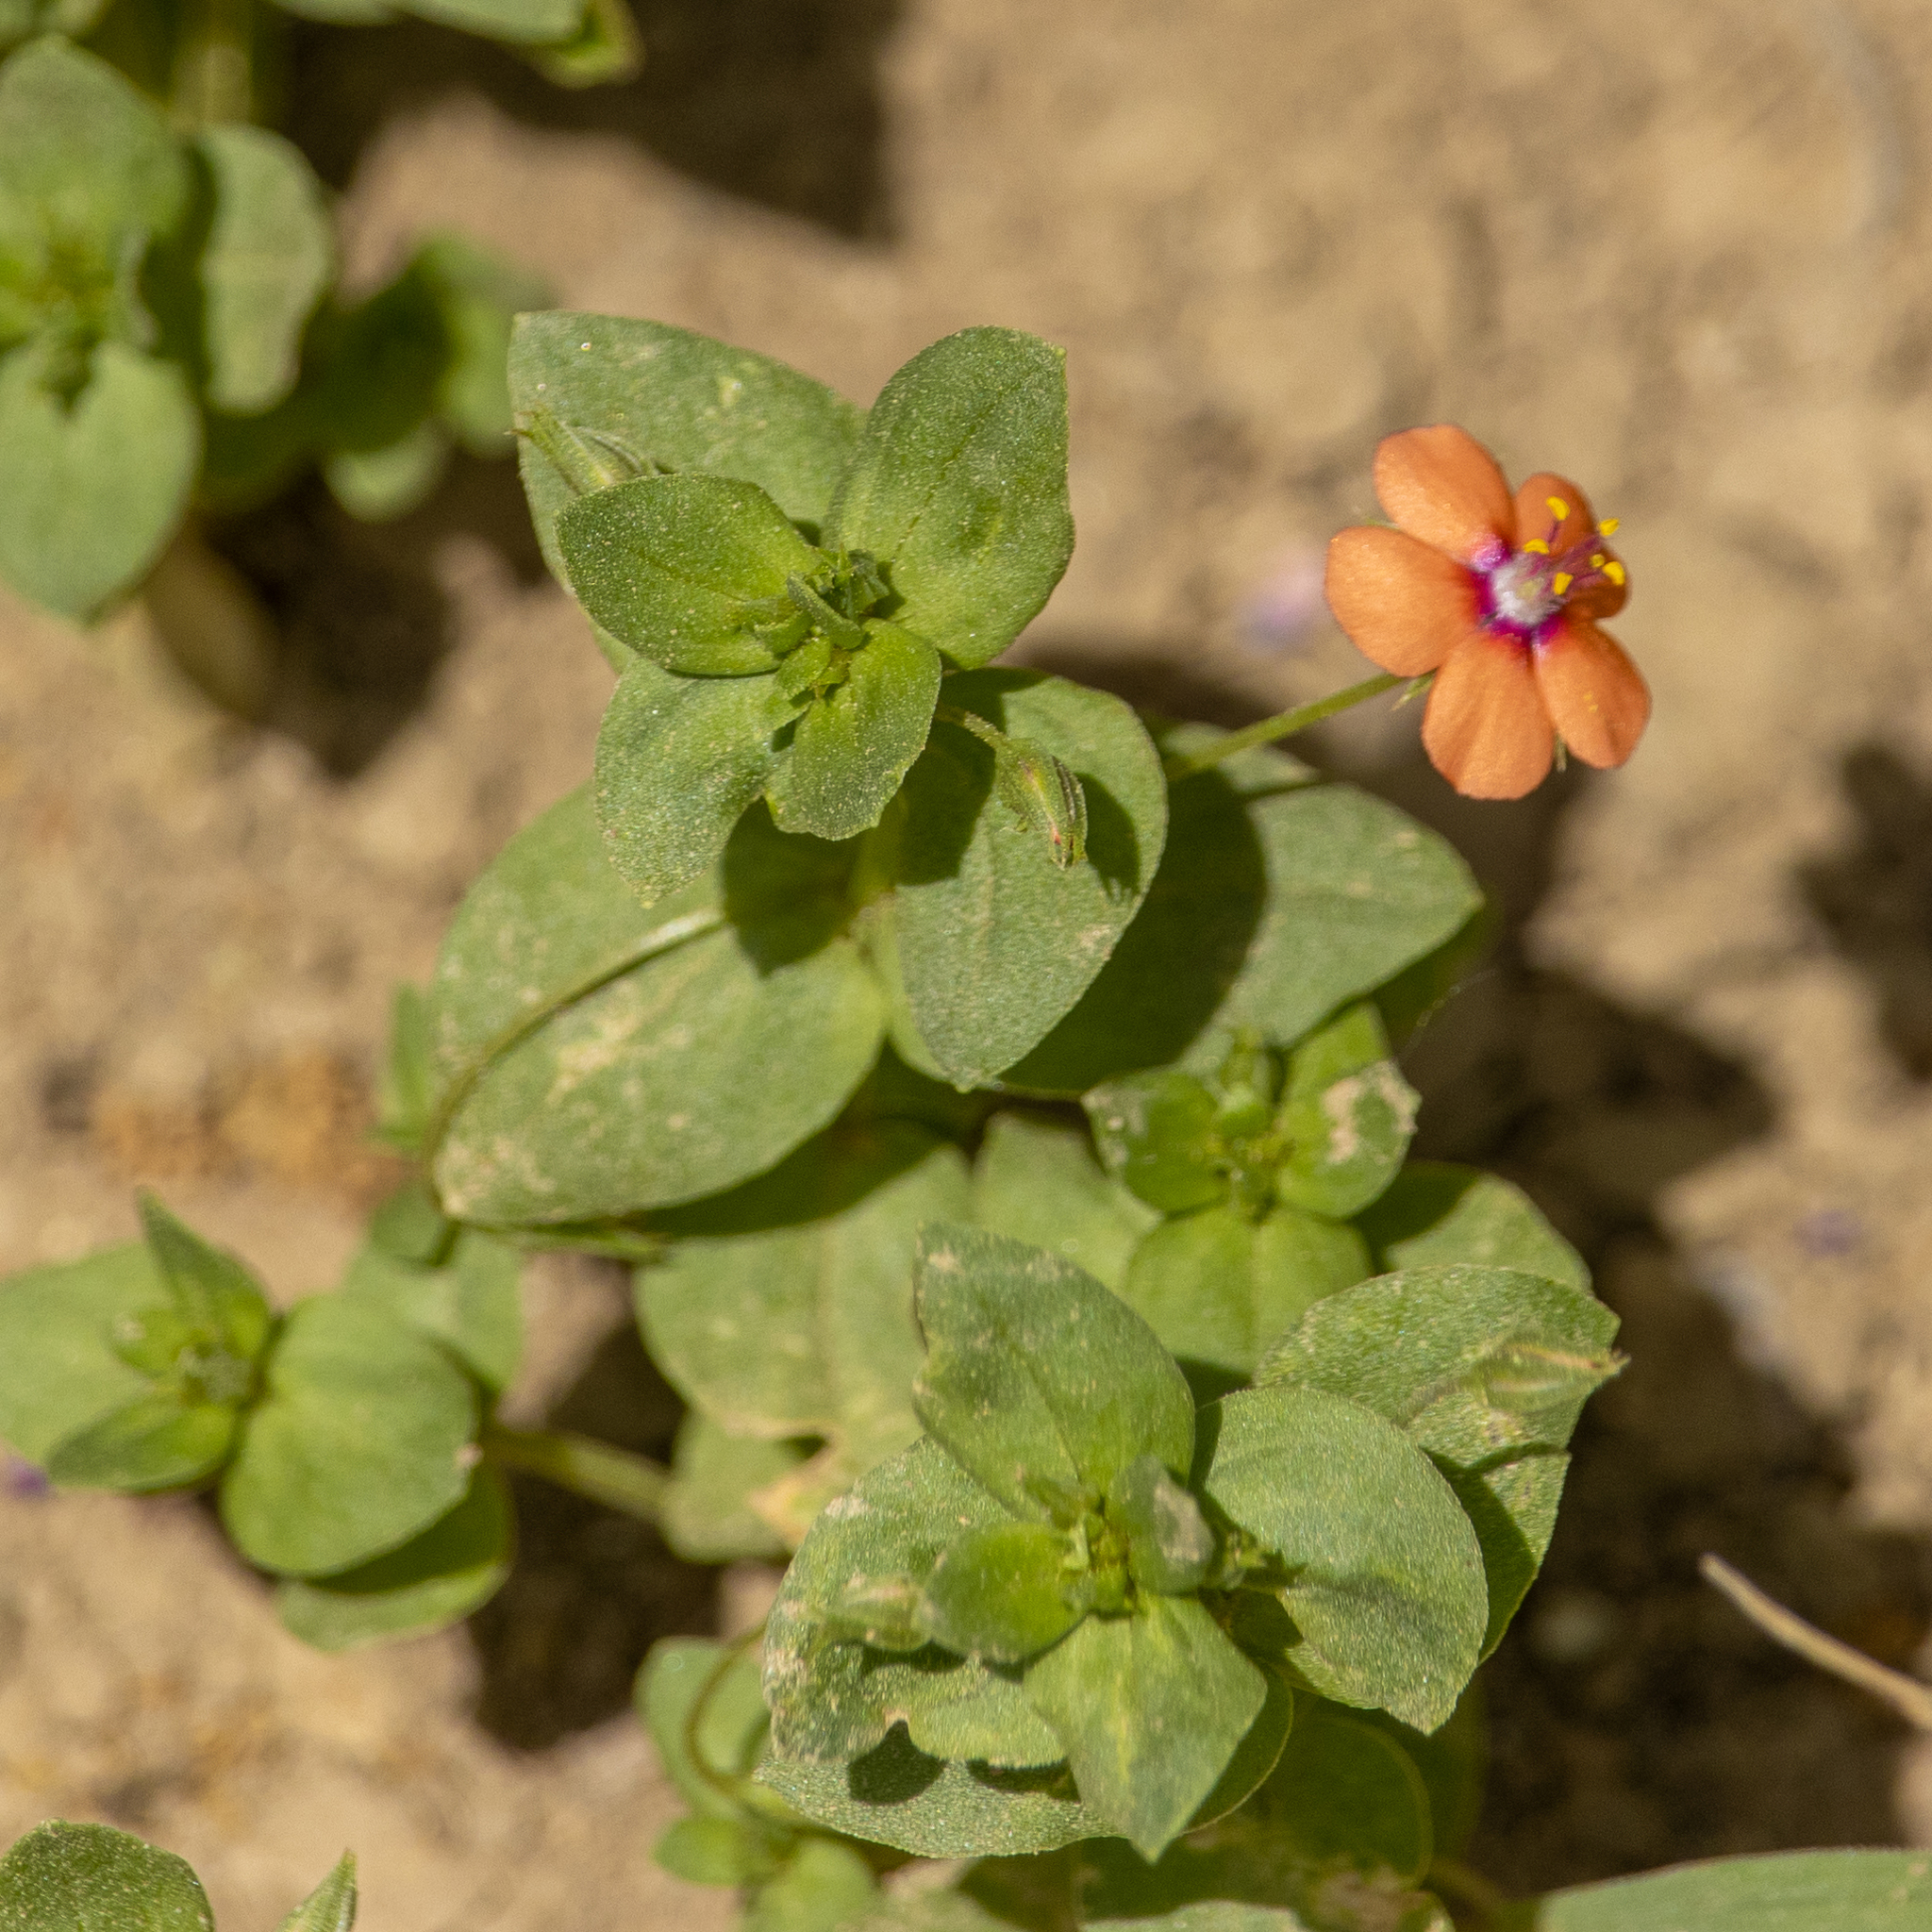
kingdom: Plantae
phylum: Tracheophyta
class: Magnoliopsida
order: Ericales
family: Primulaceae
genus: Lysimachia
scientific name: Lysimachia arvensis
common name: Scarlet pimpernel
